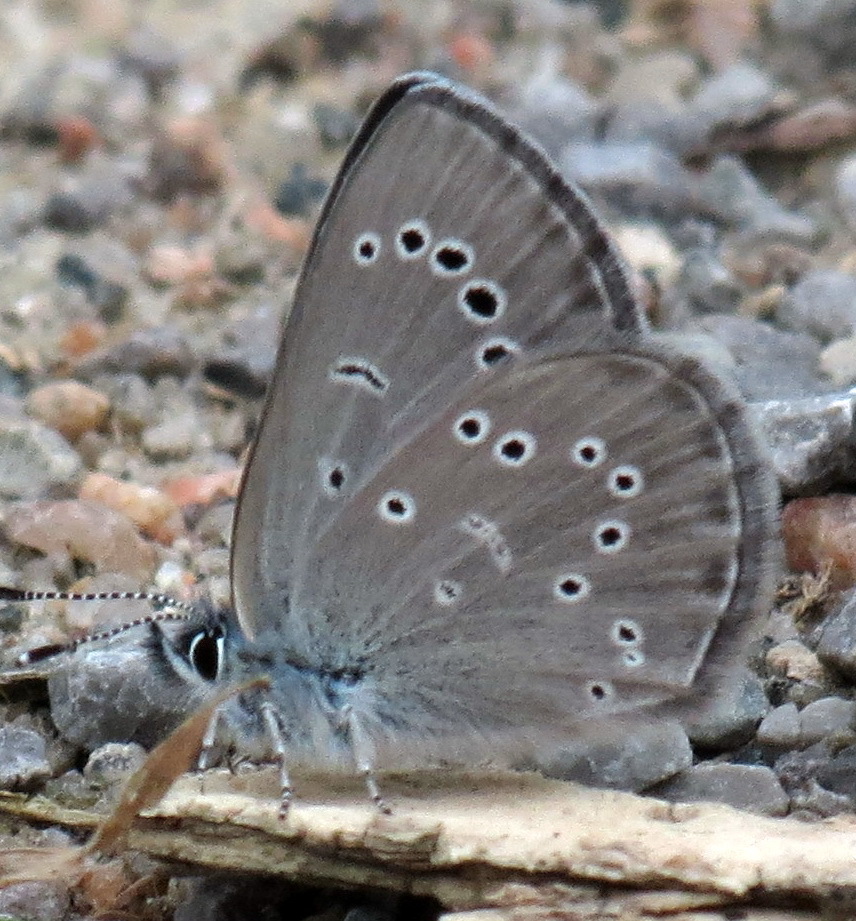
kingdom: Animalia
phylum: Arthropoda
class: Insecta
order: Lepidoptera
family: Lycaenidae
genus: Glaucopsyche
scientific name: Glaucopsyche lygdamus
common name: Silvery blue
